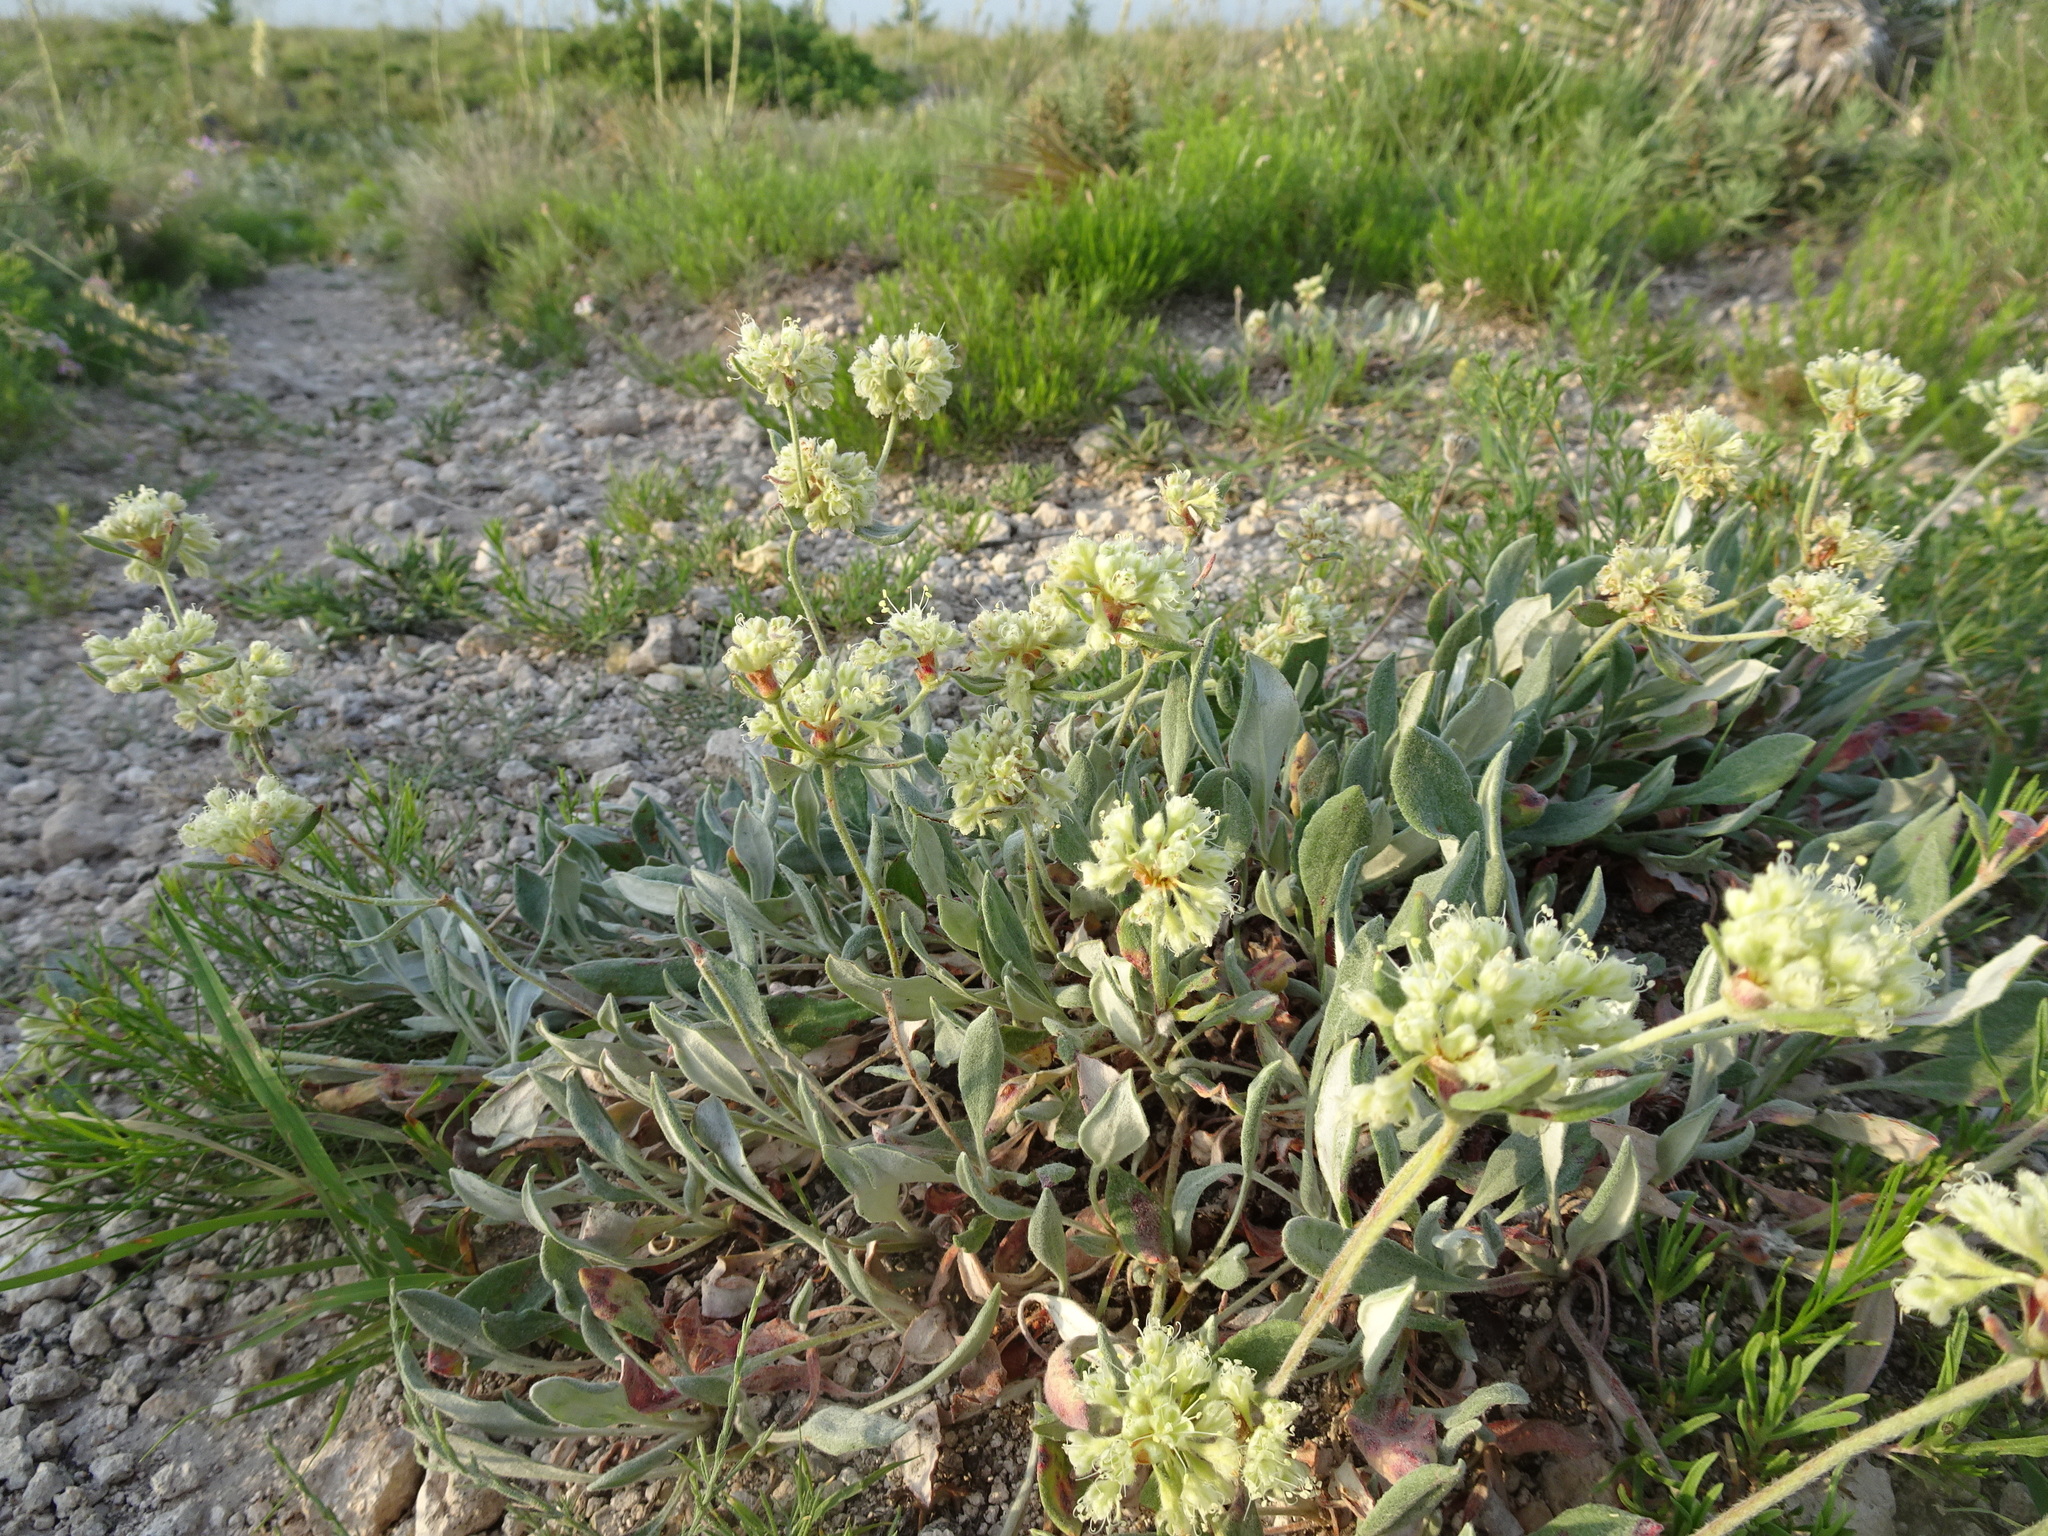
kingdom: Plantae
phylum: Tracheophyta
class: Magnoliopsida
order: Caryophyllales
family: Polygonaceae
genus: Eriogonum
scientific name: Eriogonum jamesii
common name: Antelope-sage
